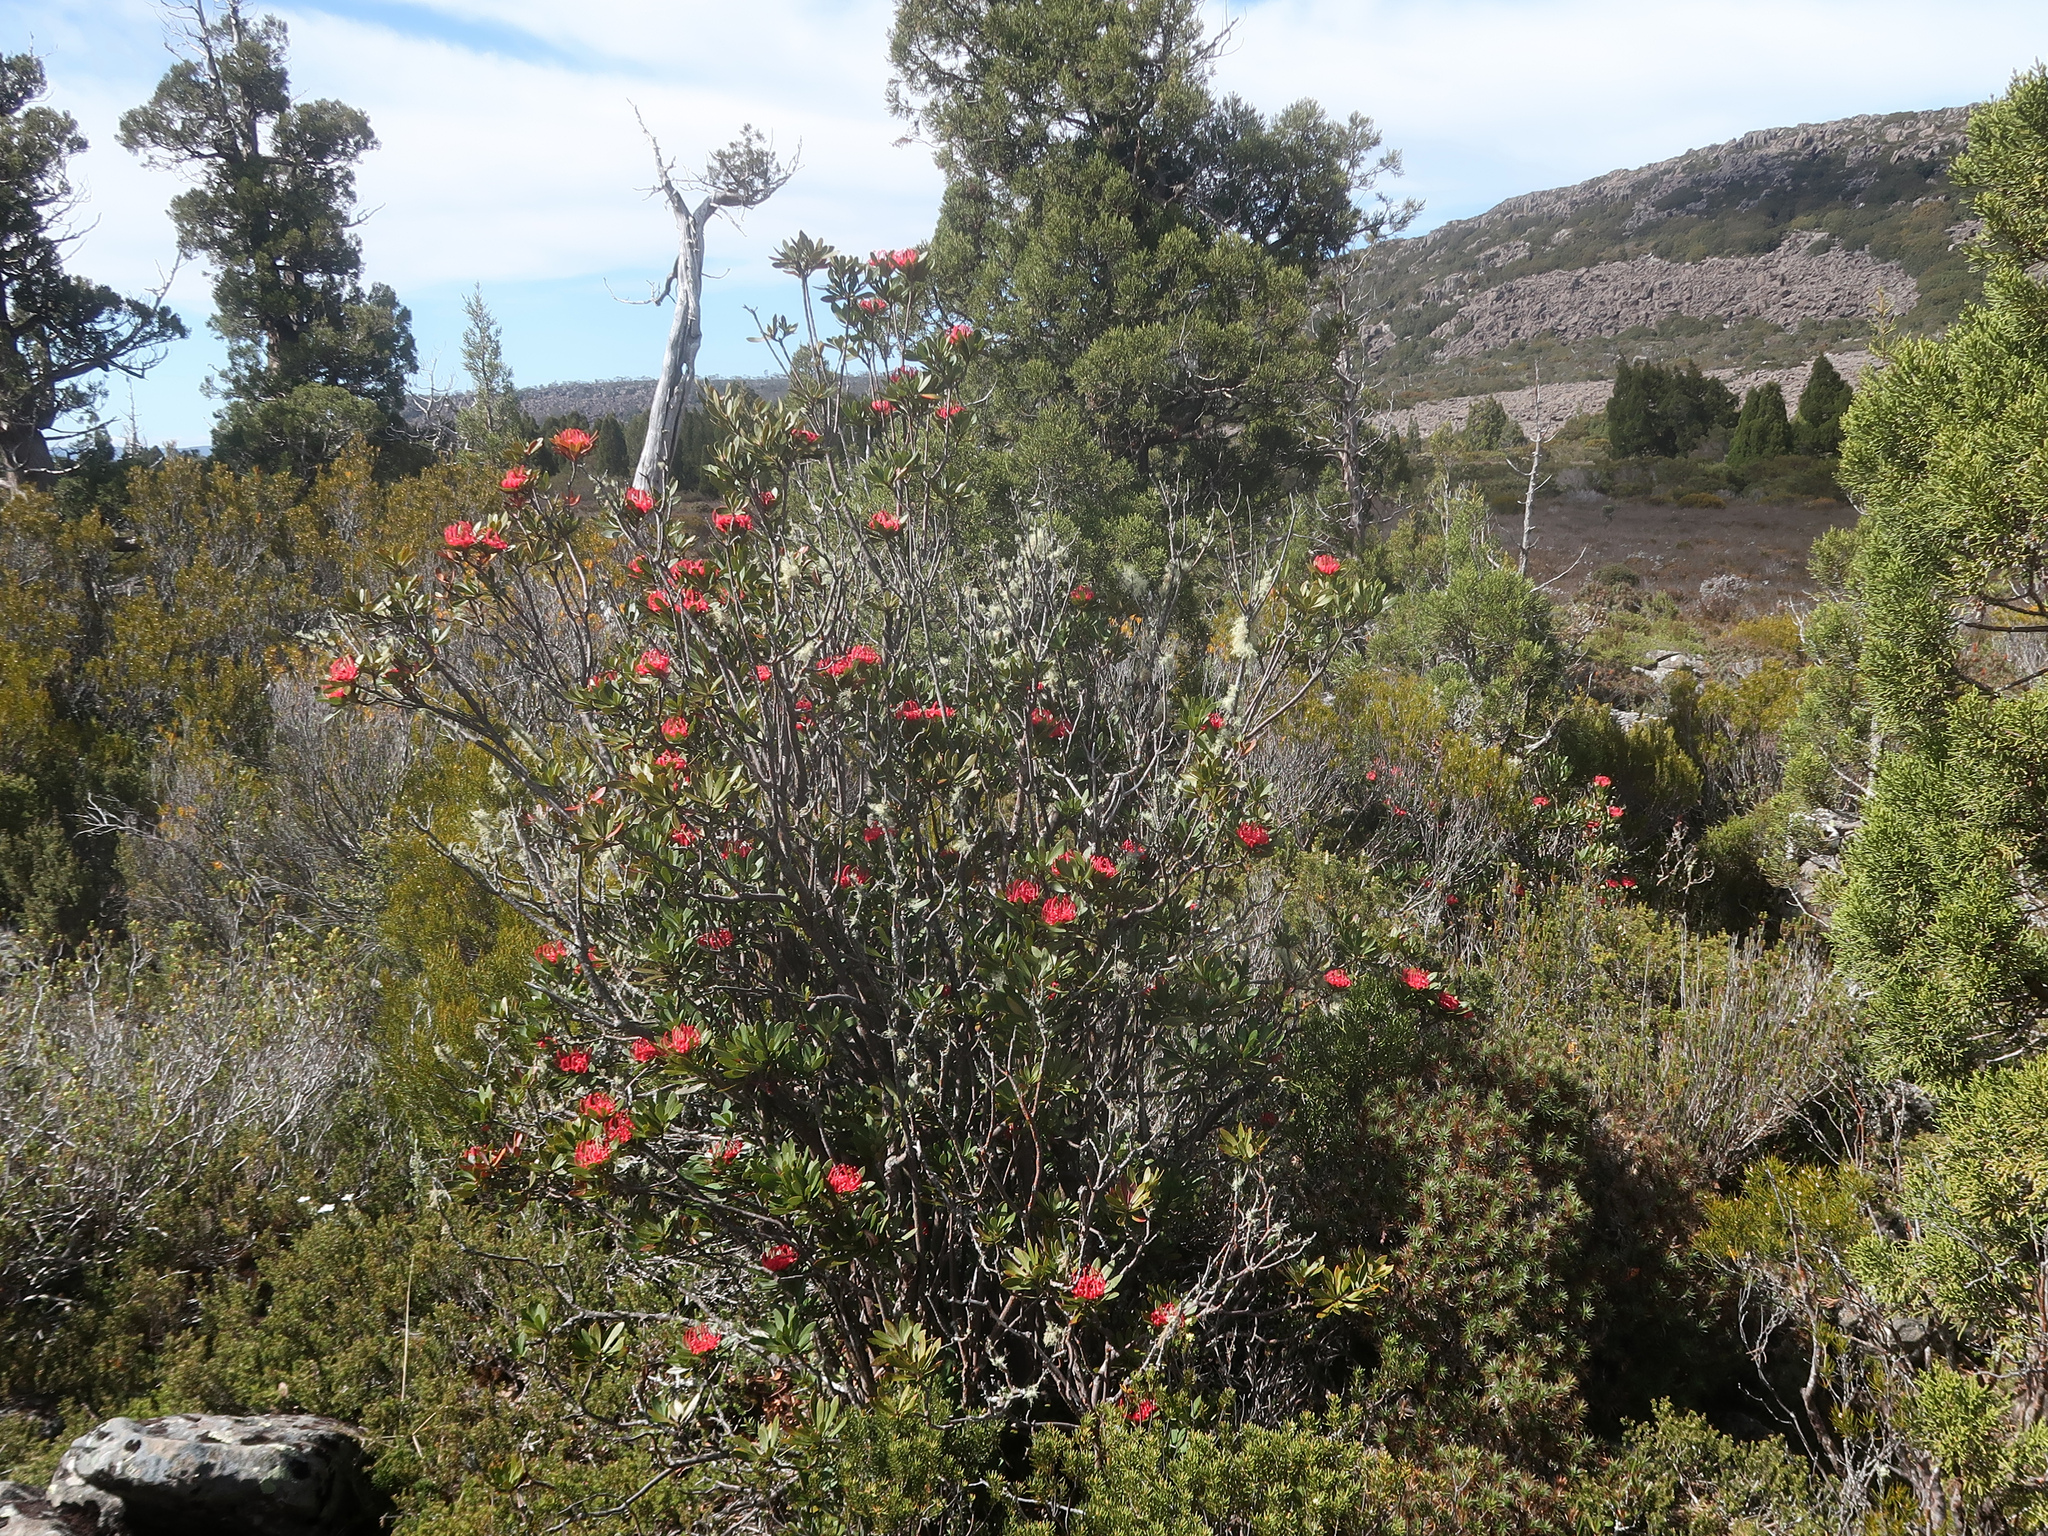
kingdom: Plantae
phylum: Tracheophyta
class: Magnoliopsida
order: Proteales
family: Proteaceae
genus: Telopea
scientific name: Telopea truncata
